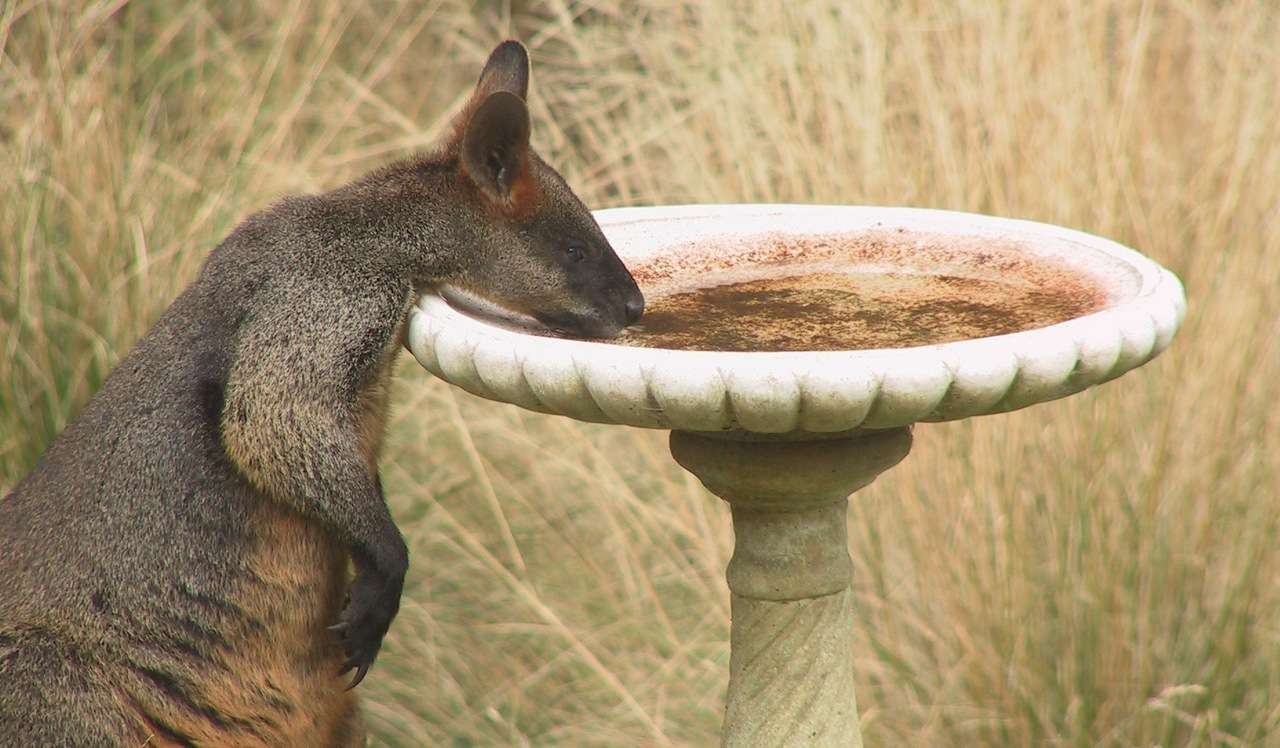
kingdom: Animalia
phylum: Chordata
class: Mammalia
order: Diprotodontia
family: Macropodidae
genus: Wallabia
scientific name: Wallabia bicolor
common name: Swamp wallaby
